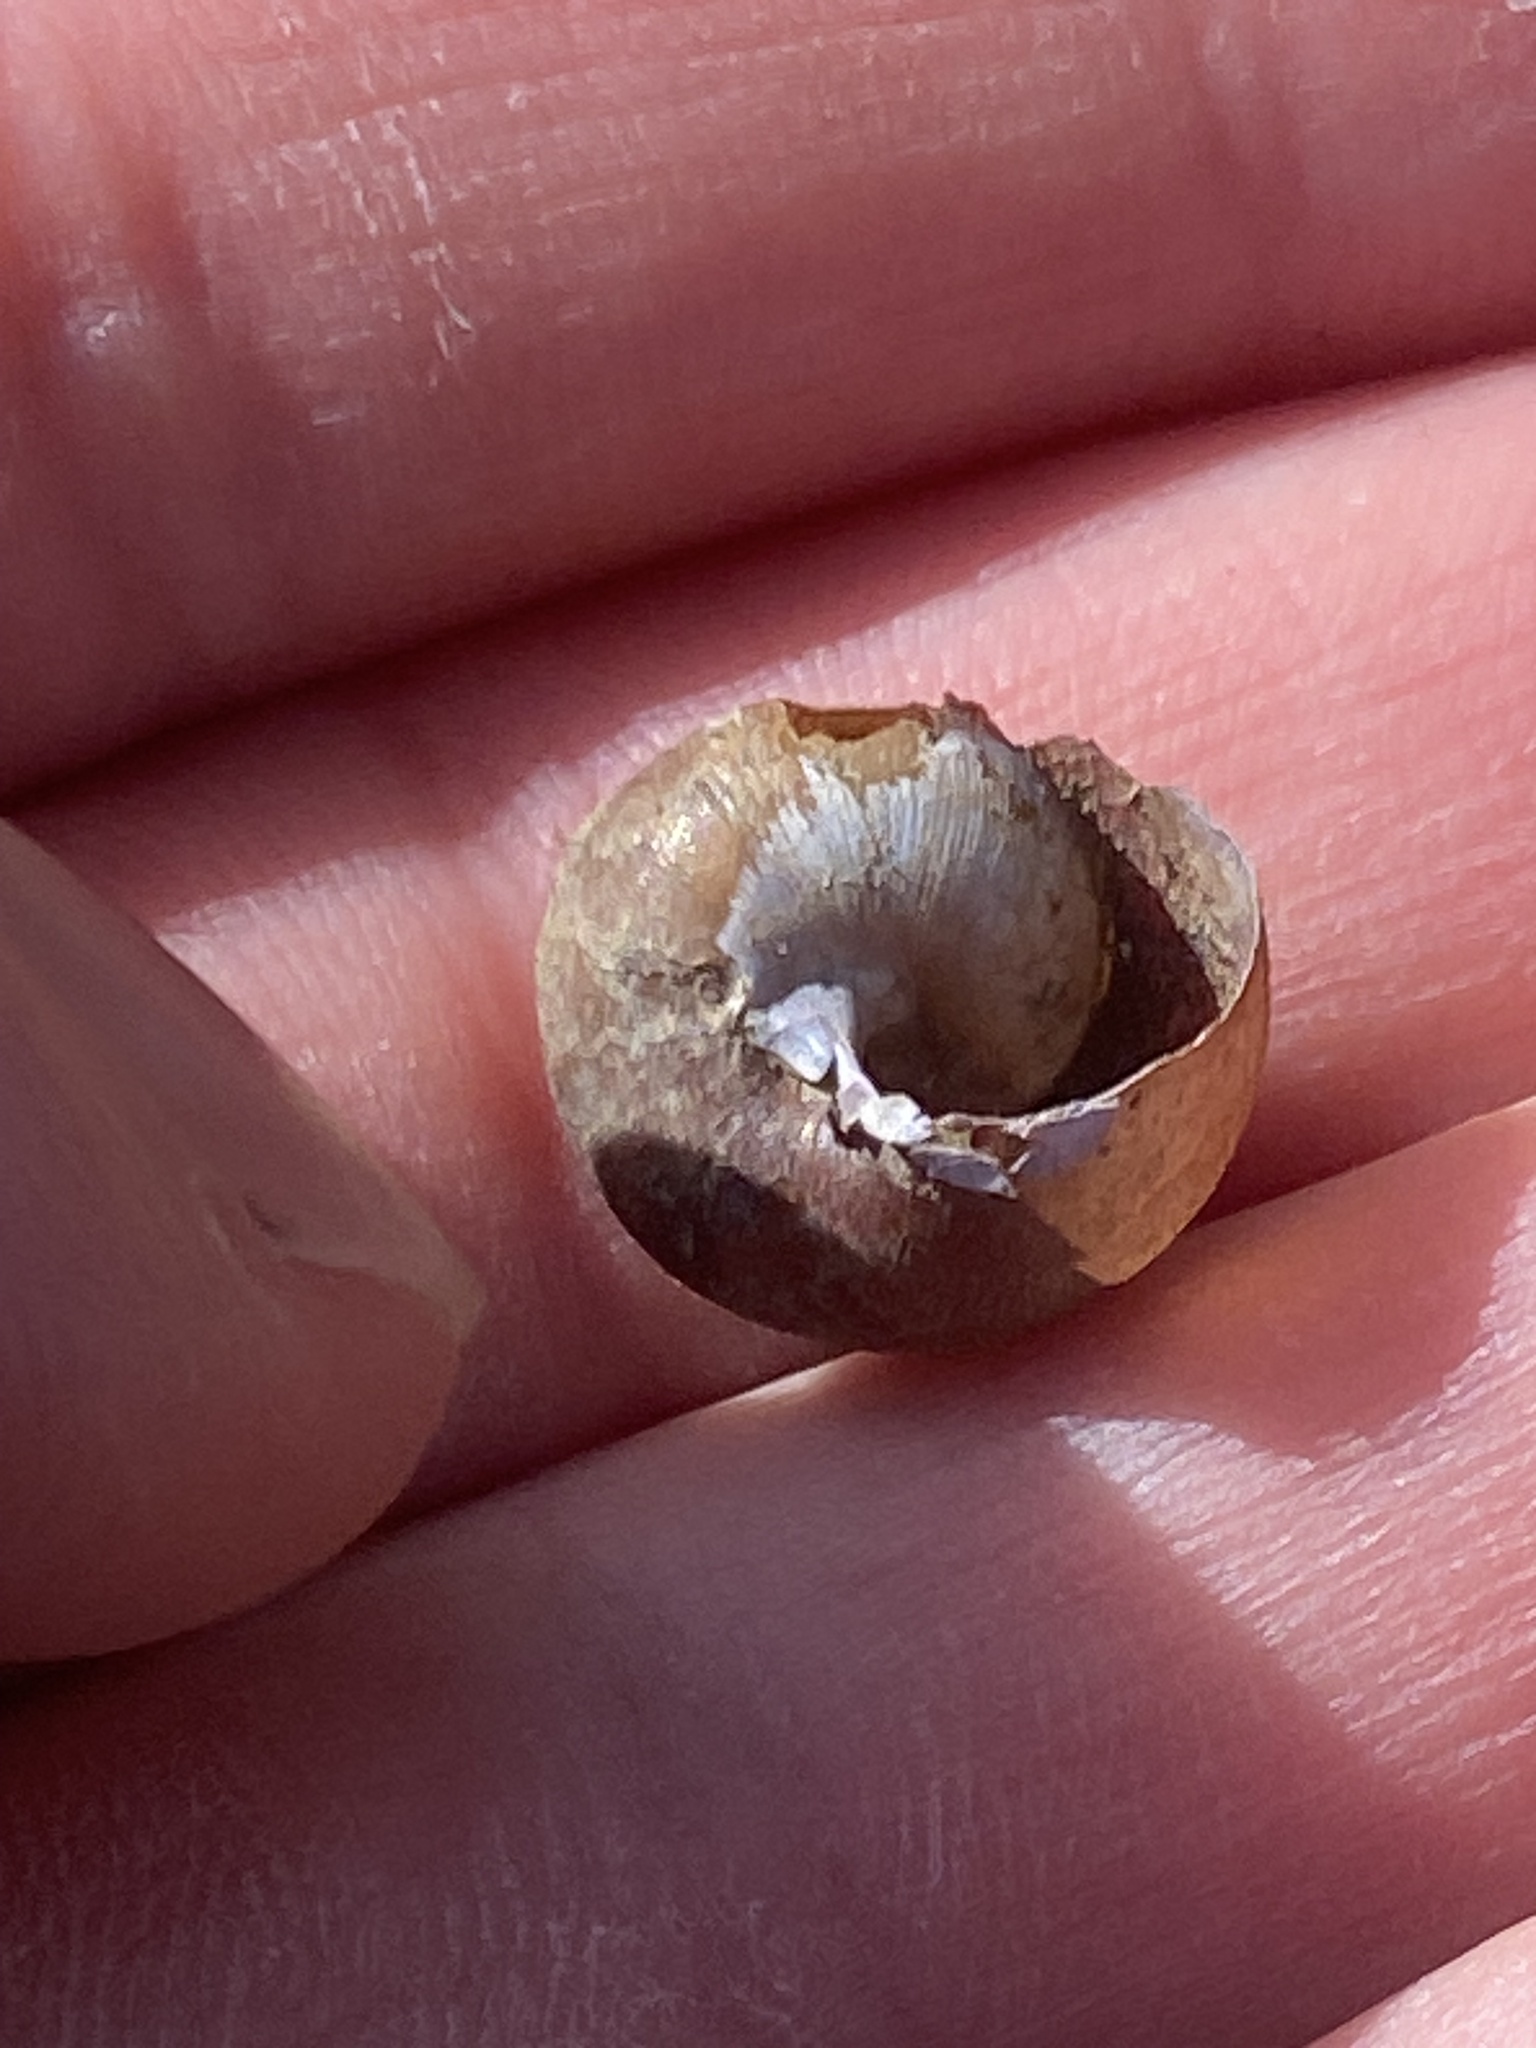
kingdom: Animalia
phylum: Mollusca
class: Gastropoda
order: Stylommatophora
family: Xanthonychidae
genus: Helminthoglypta
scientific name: Helminthoglypta nickliniana
